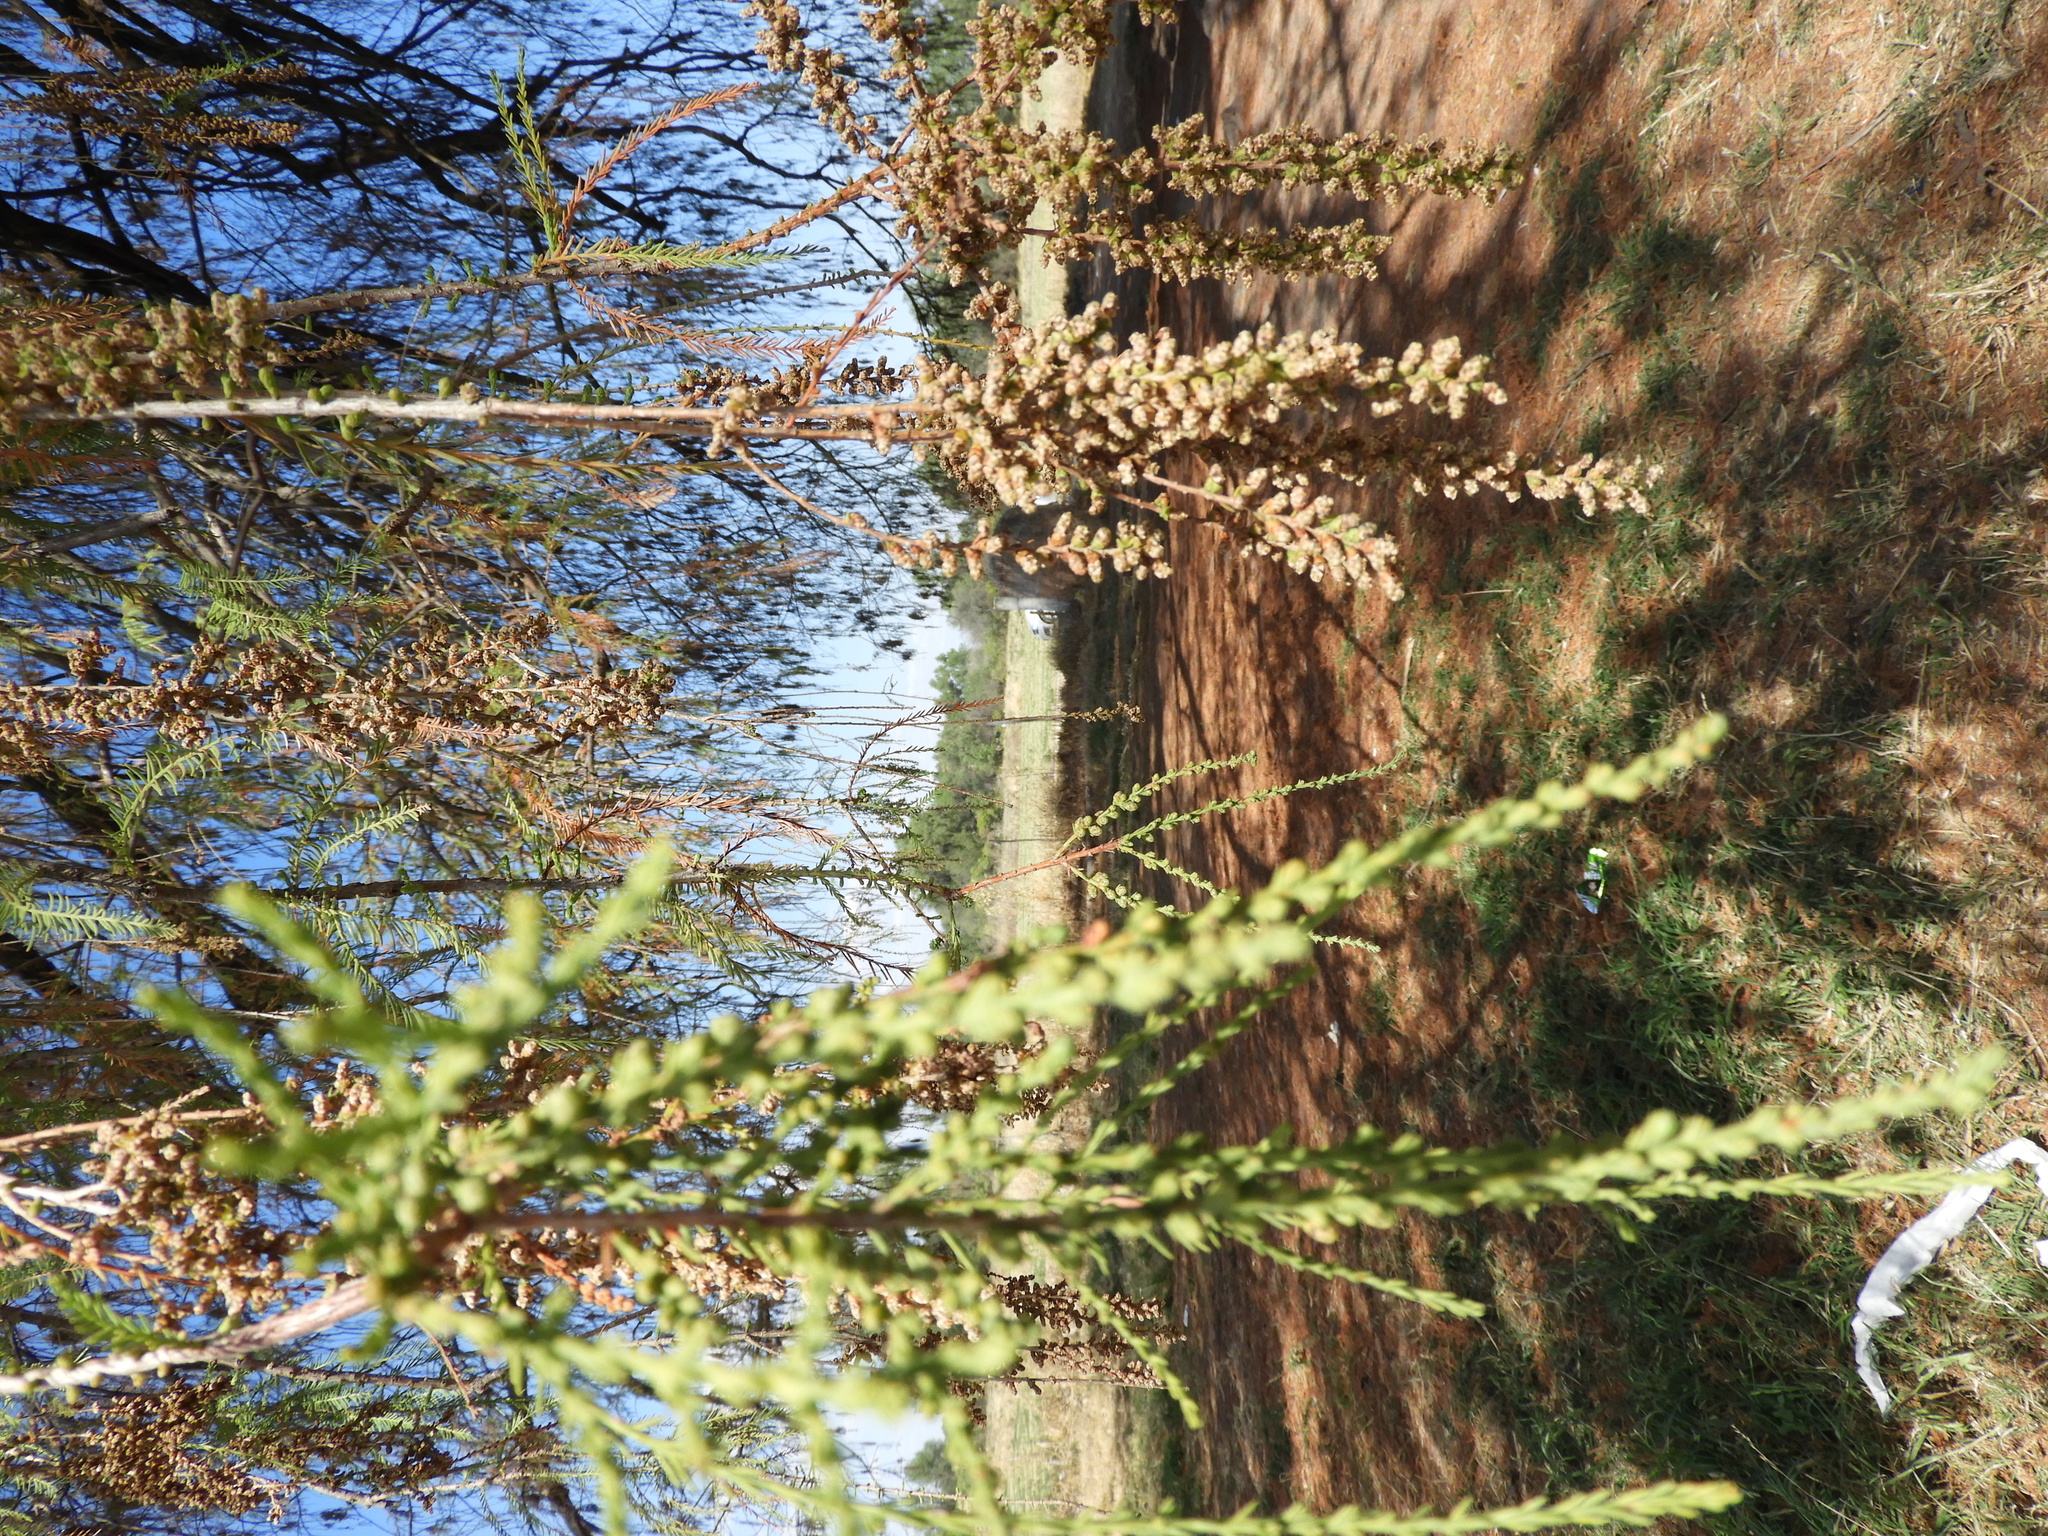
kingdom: Plantae
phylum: Tracheophyta
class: Pinopsida
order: Pinales
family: Cupressaceae
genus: Taxodium
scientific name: Taxodium mucronatum
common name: Montezume bald cypress
